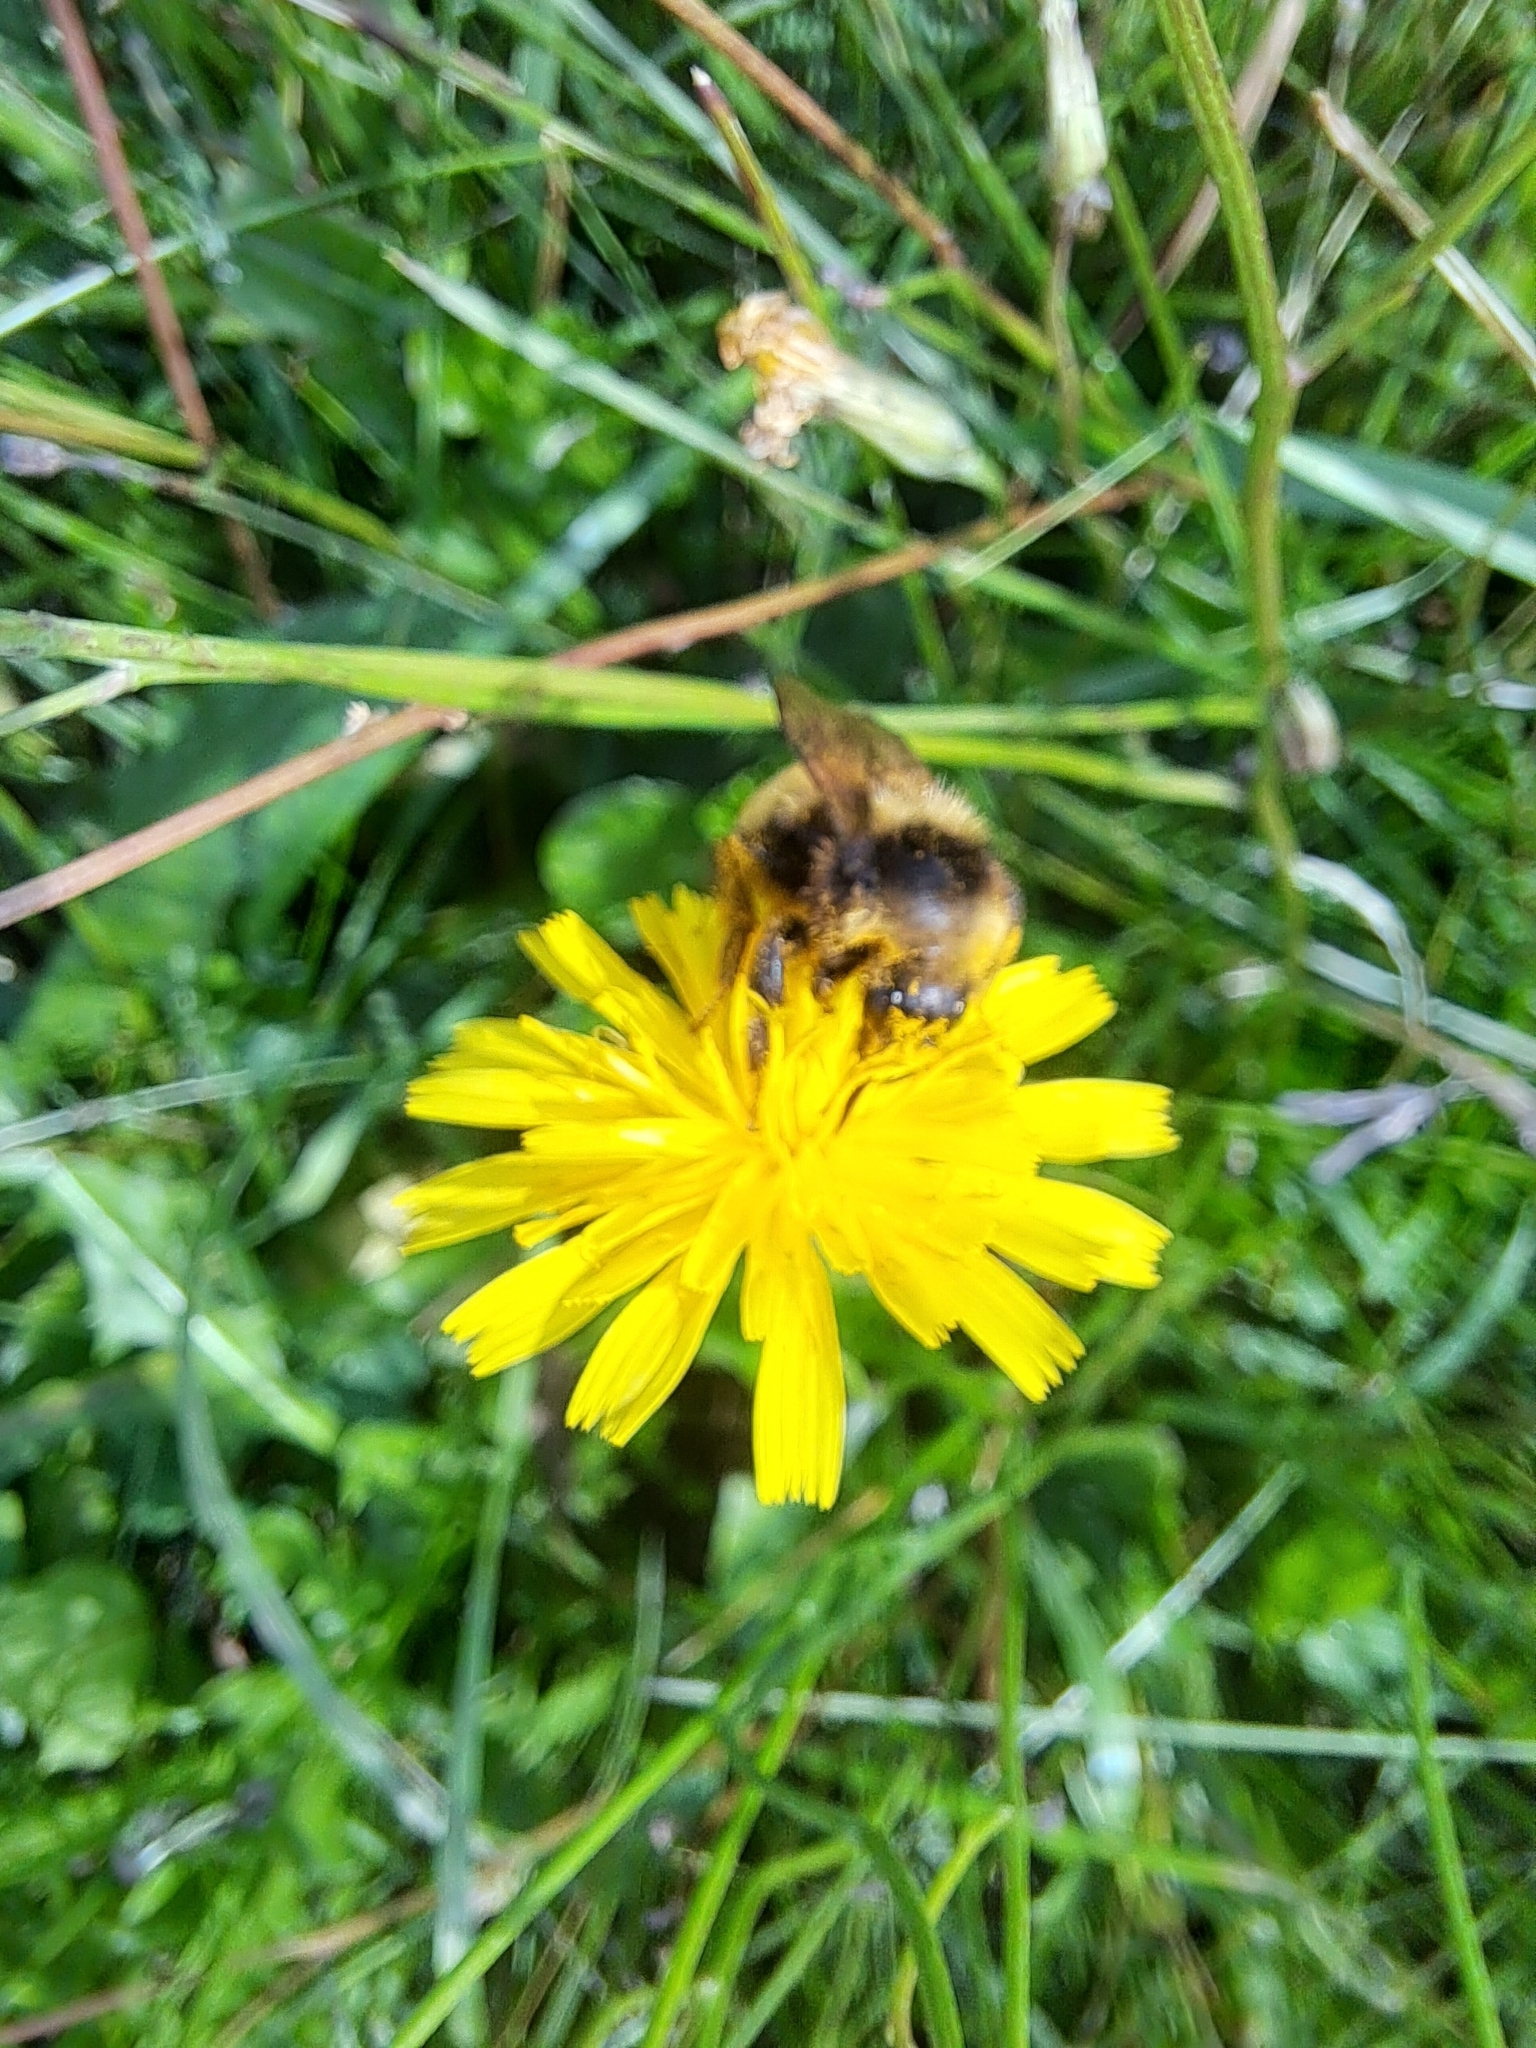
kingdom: Animalia
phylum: Arthropoda
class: Insecta
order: Hymenoptera
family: Apidae
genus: Bombus
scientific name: Bombus borealis
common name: Northern amber bumble bee
